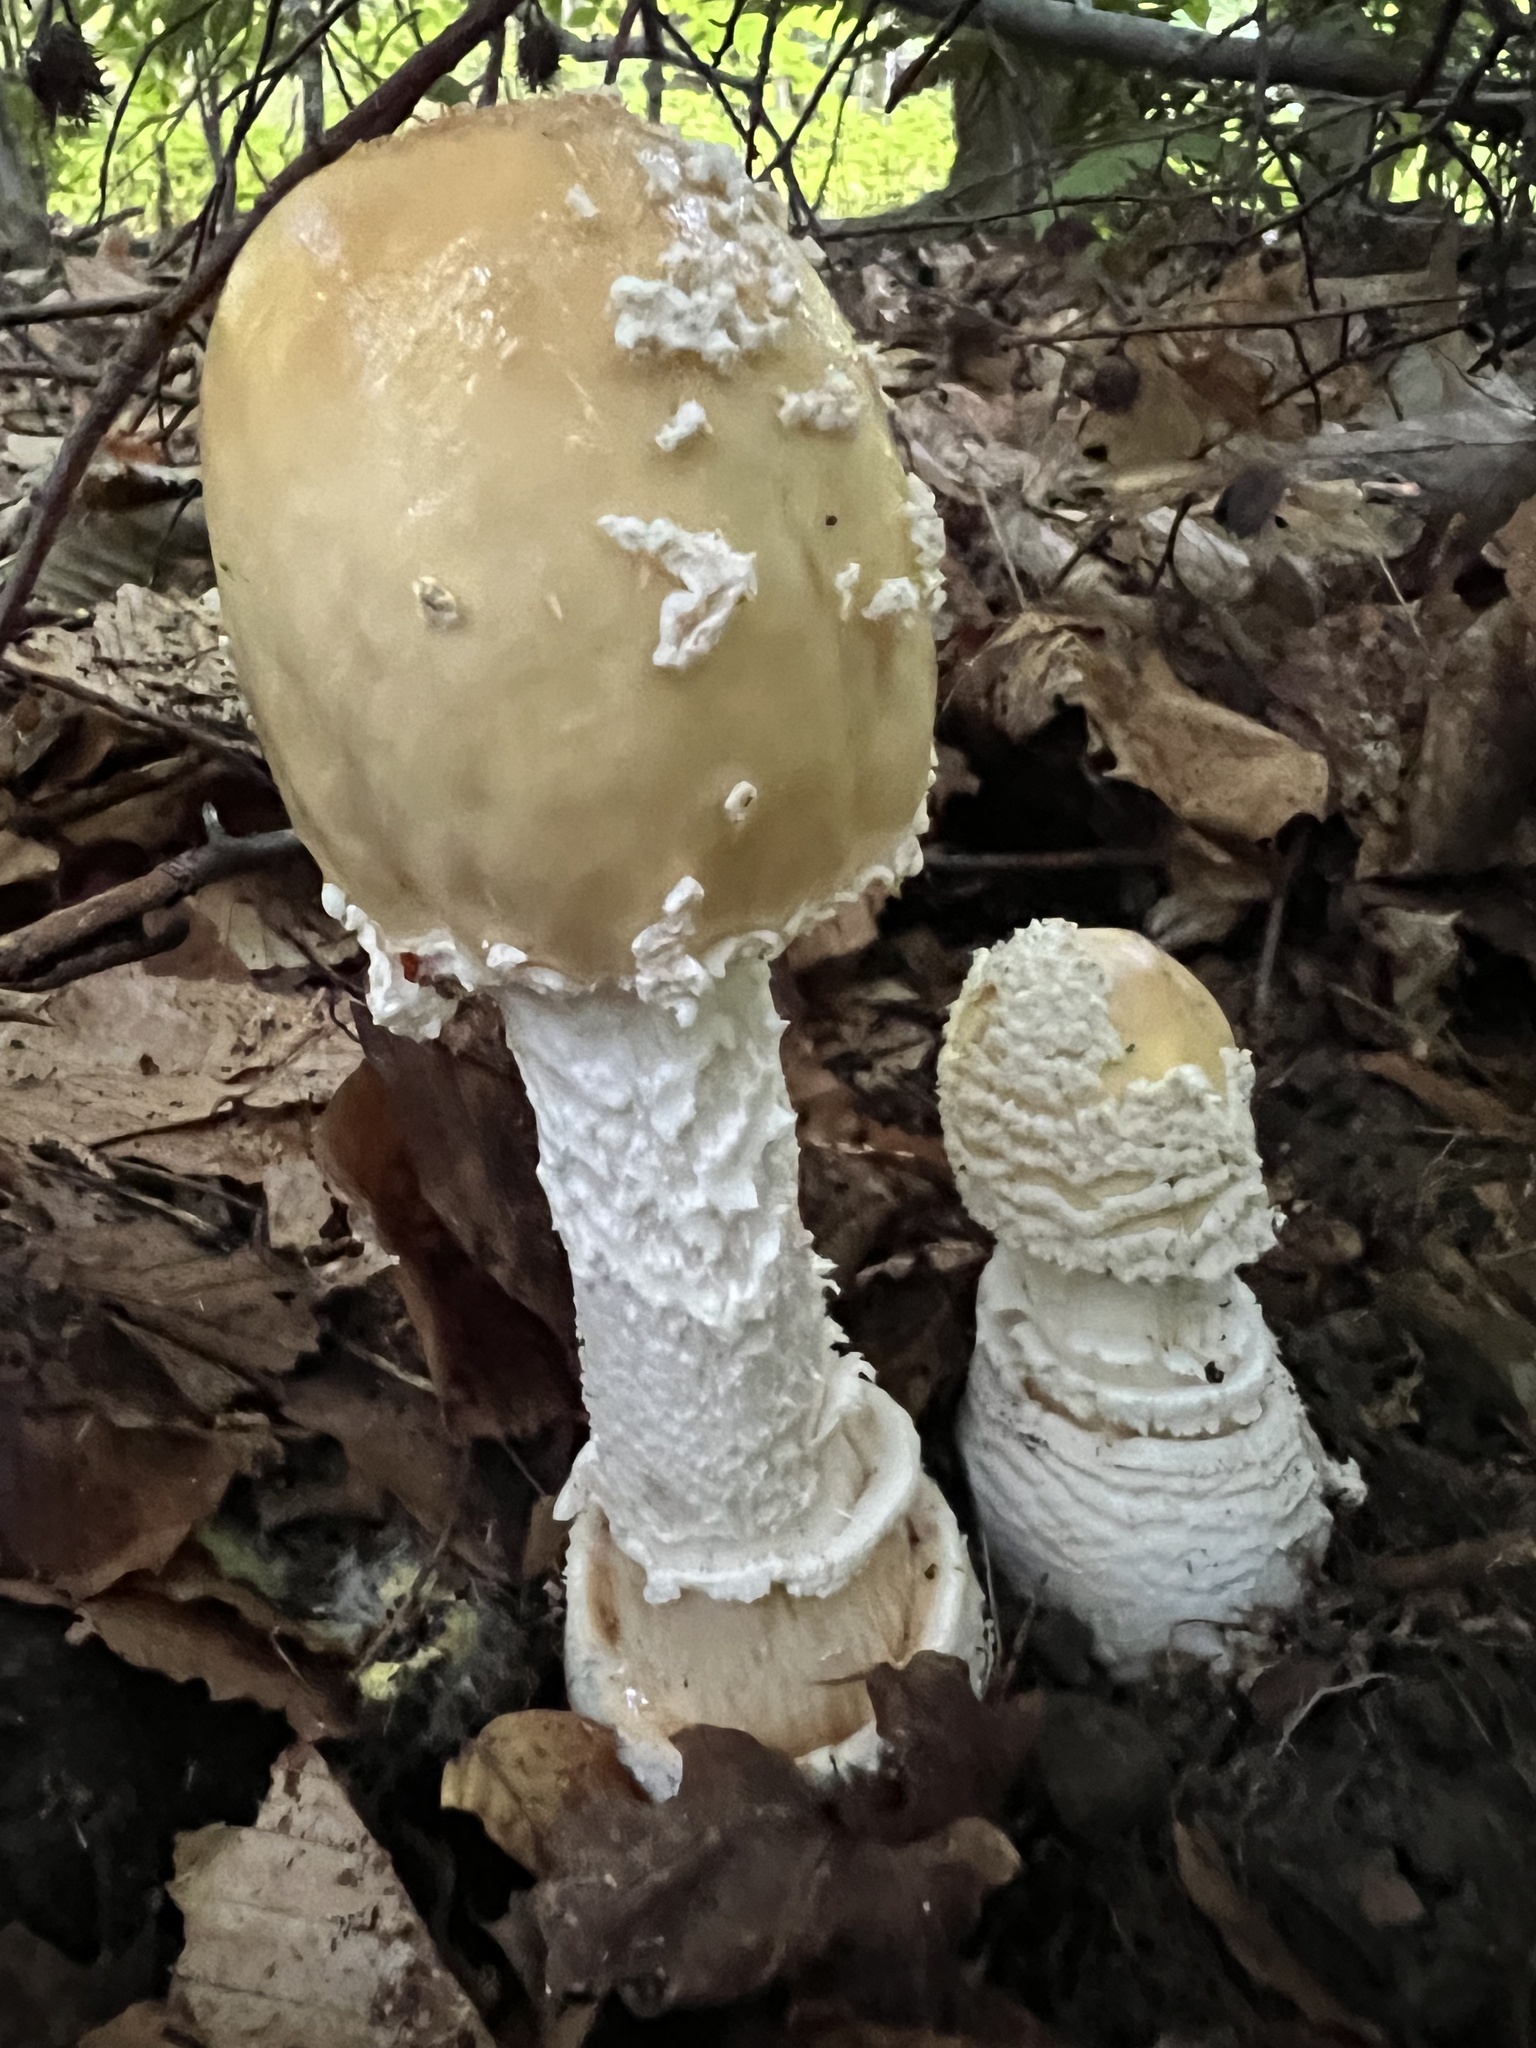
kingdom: Fungi
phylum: Basidiomycota
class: Agaricomycetes
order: Agaricales
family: Amanitaceae
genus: Amanita
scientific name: Amanita velatipes
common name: Great funnel-veil amanita
